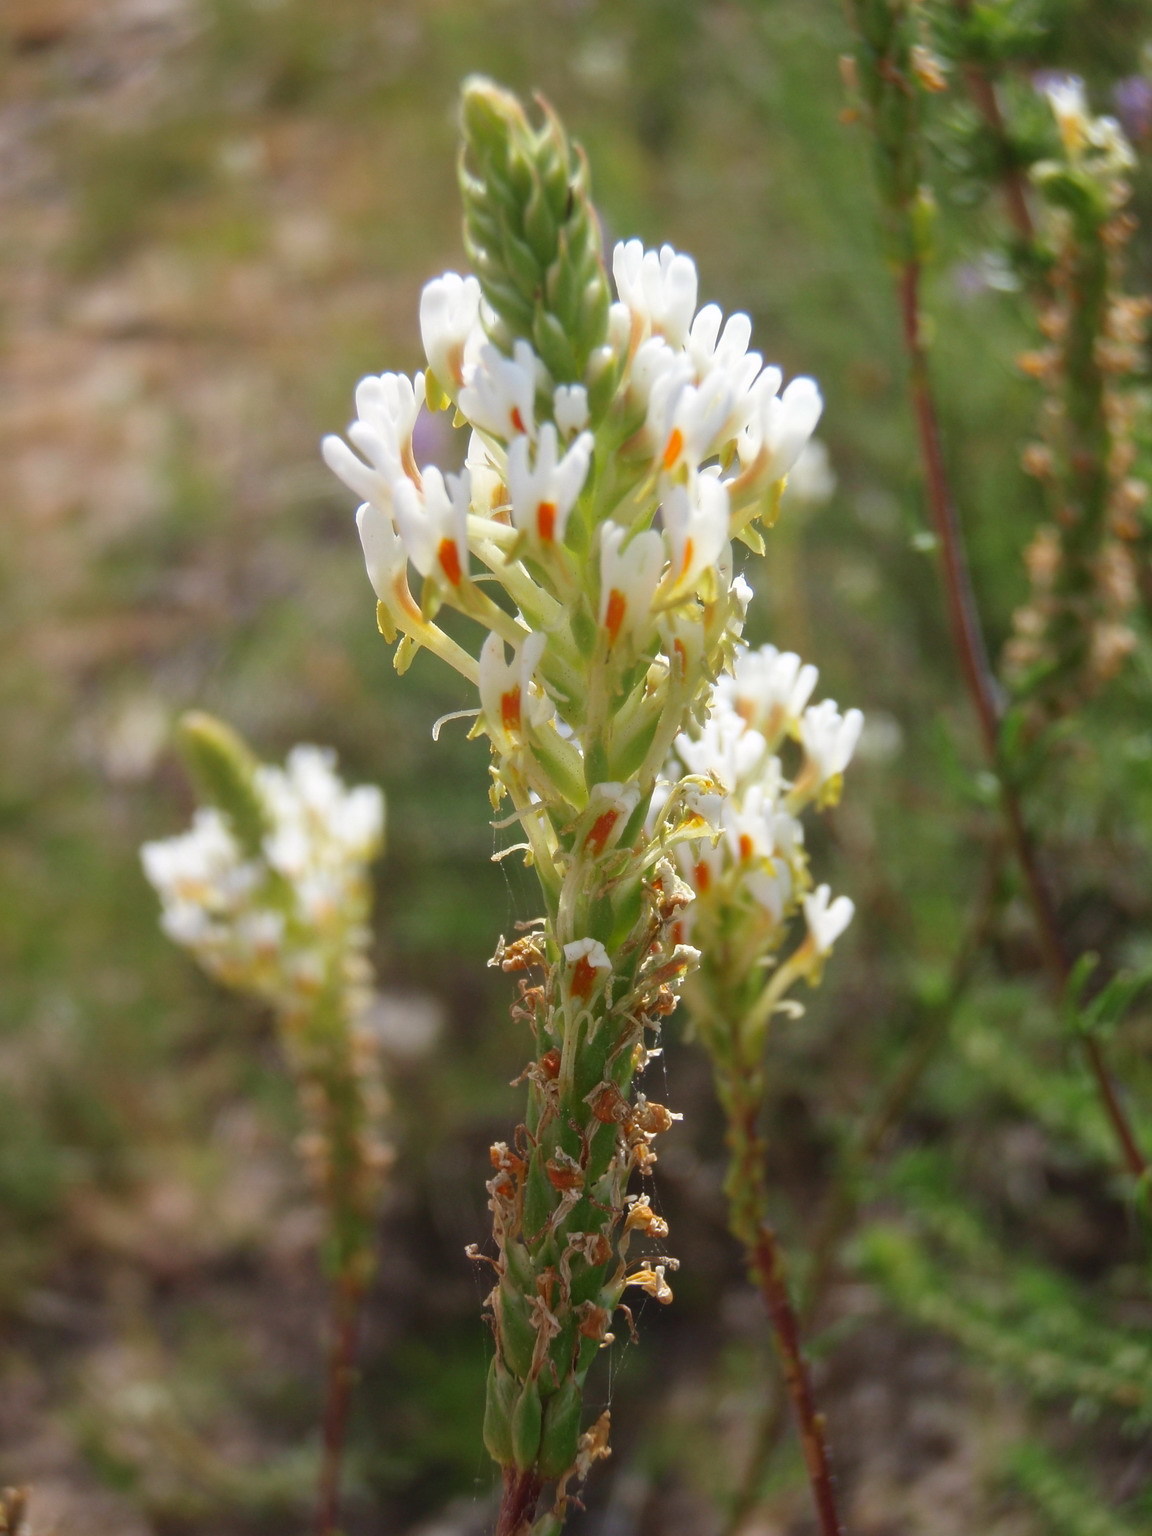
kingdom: Plantae
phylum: Tracheophyta
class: Magnoliopsida
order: Lamiales
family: Scrophulariaceae
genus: Hebenstretia
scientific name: Hebenstretia integrifolia
